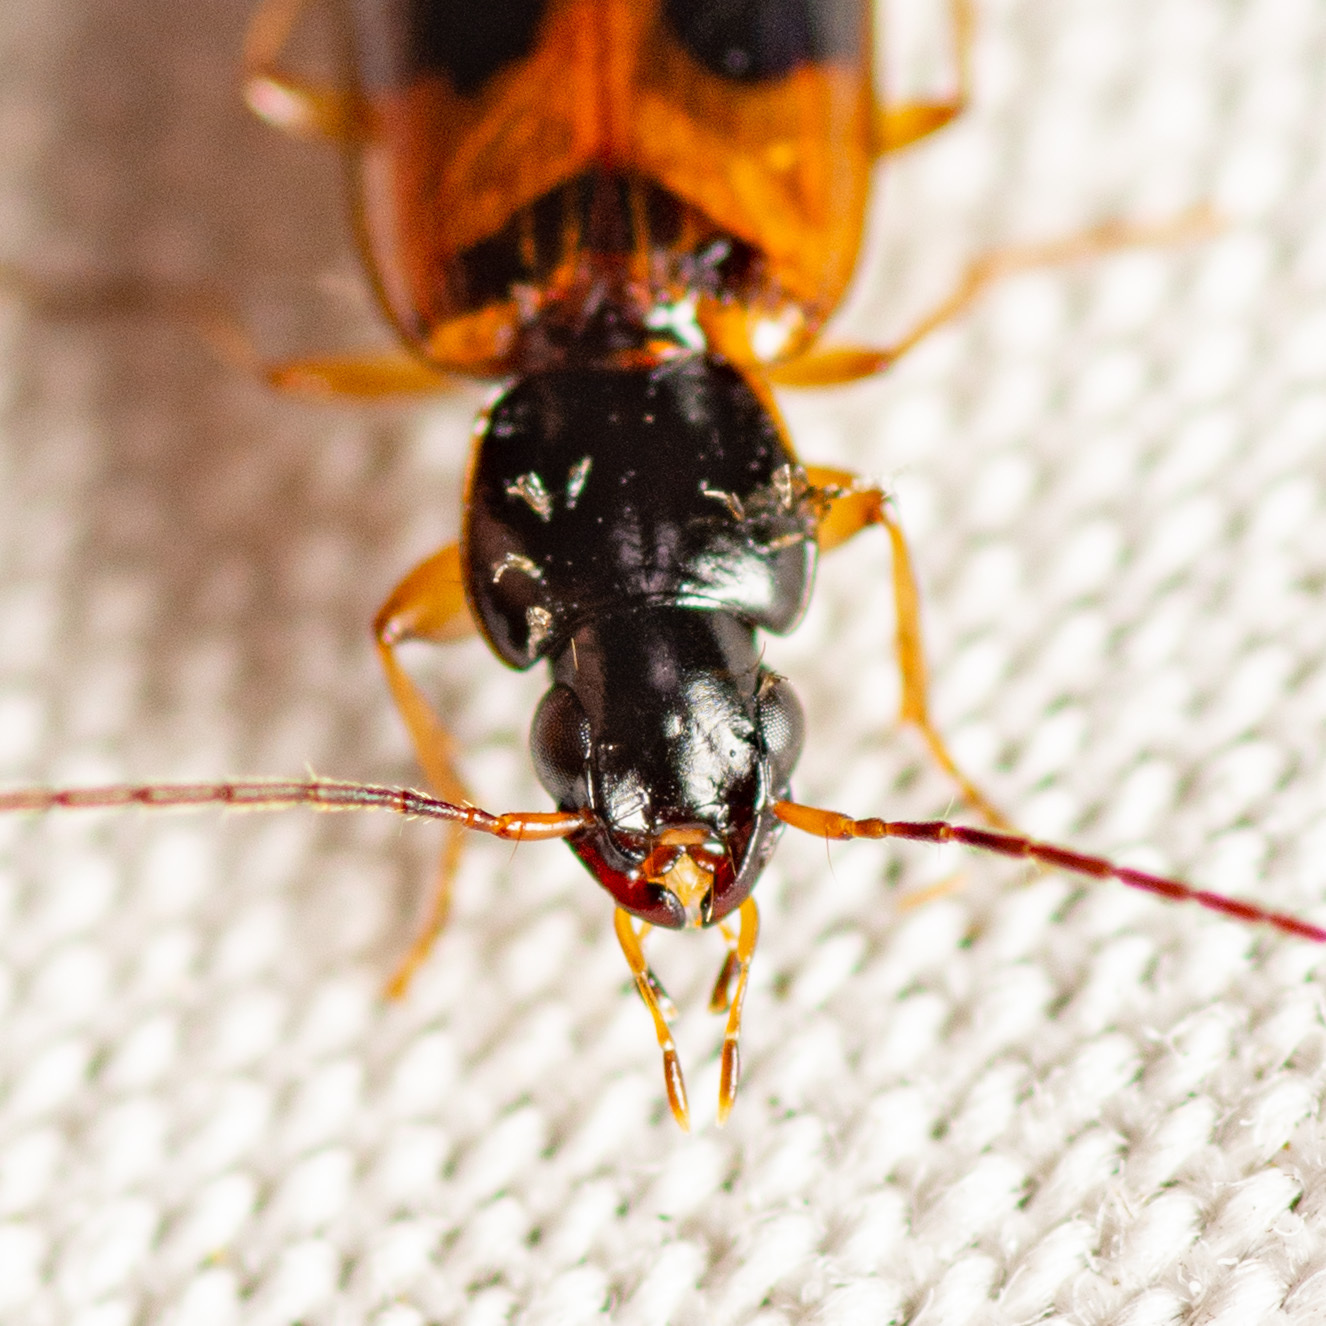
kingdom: Animalia
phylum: Arthropoda
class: Insecta
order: Coleoptera
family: Carabidae
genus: Badister
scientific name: Badister elegans
